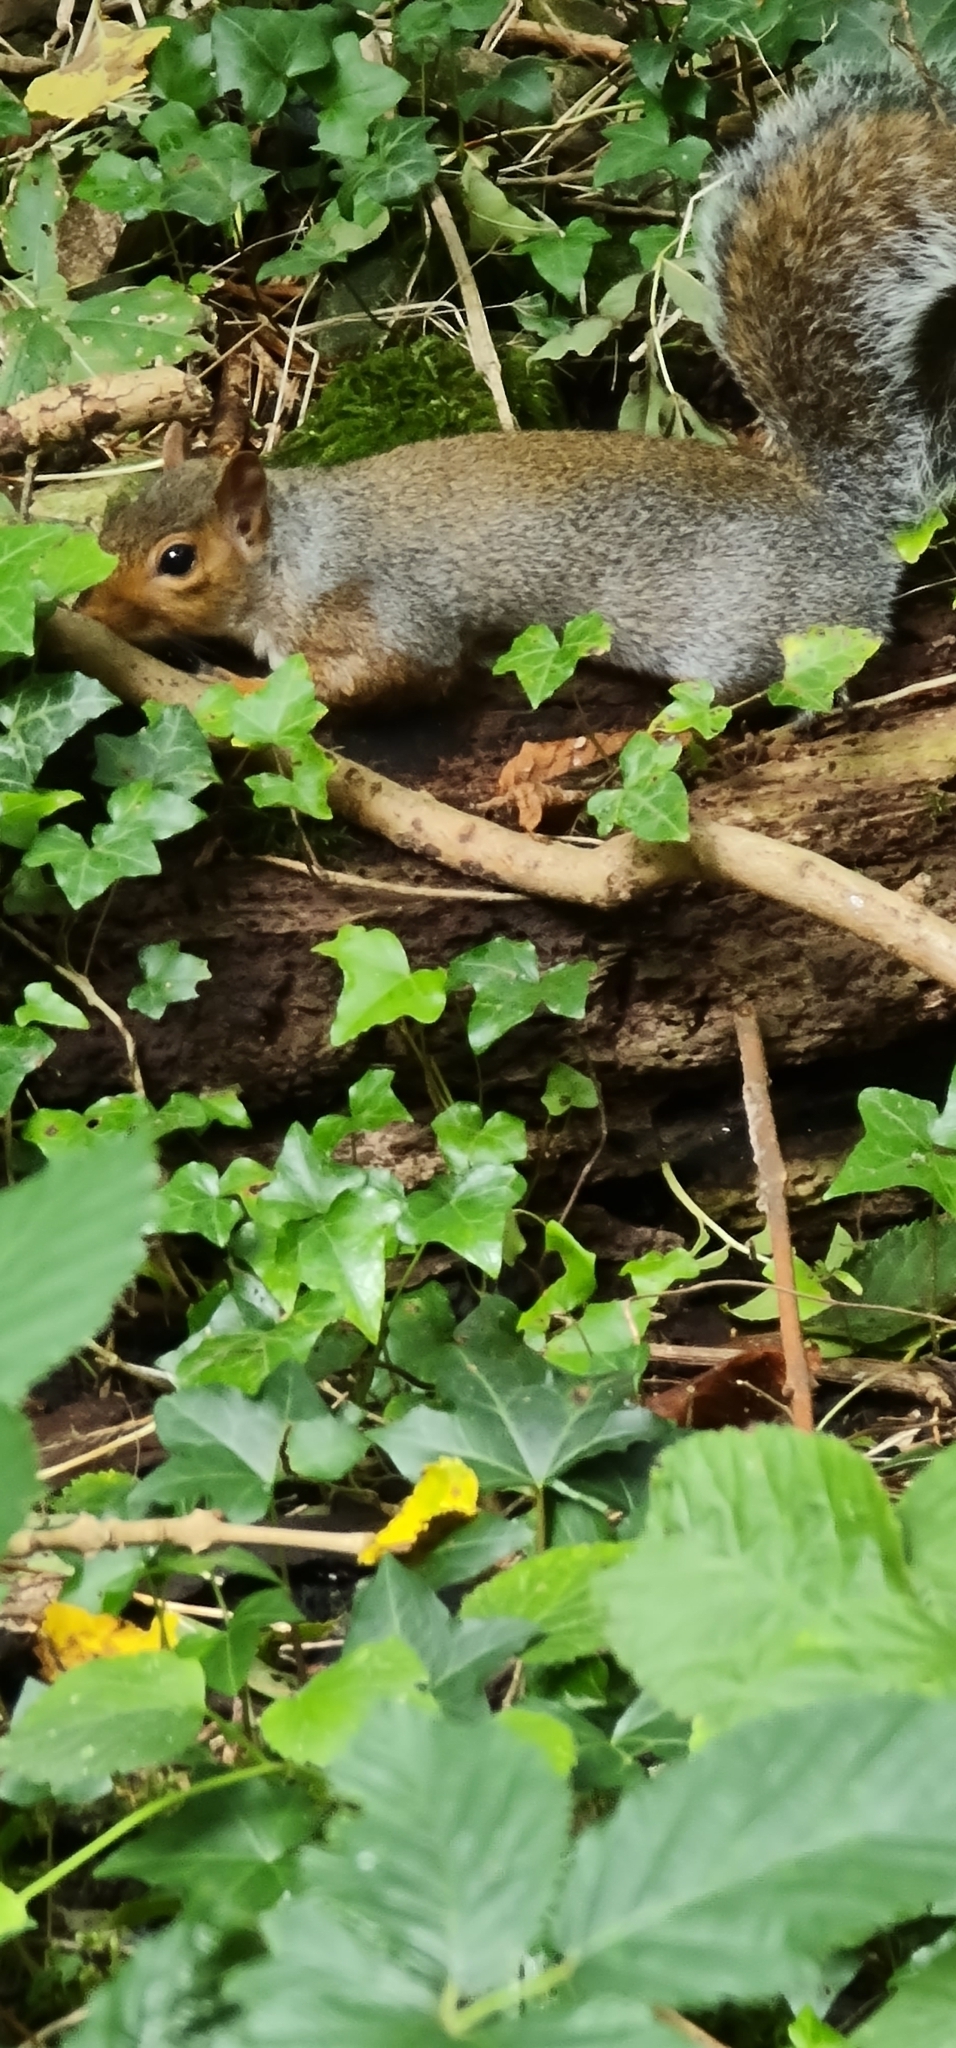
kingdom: Animalia
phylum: Chordata
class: Mammalia
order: Rodentia
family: Sciuridae
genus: Sciurus
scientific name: Sciurus carolinensis
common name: Eastern gray squirrel
